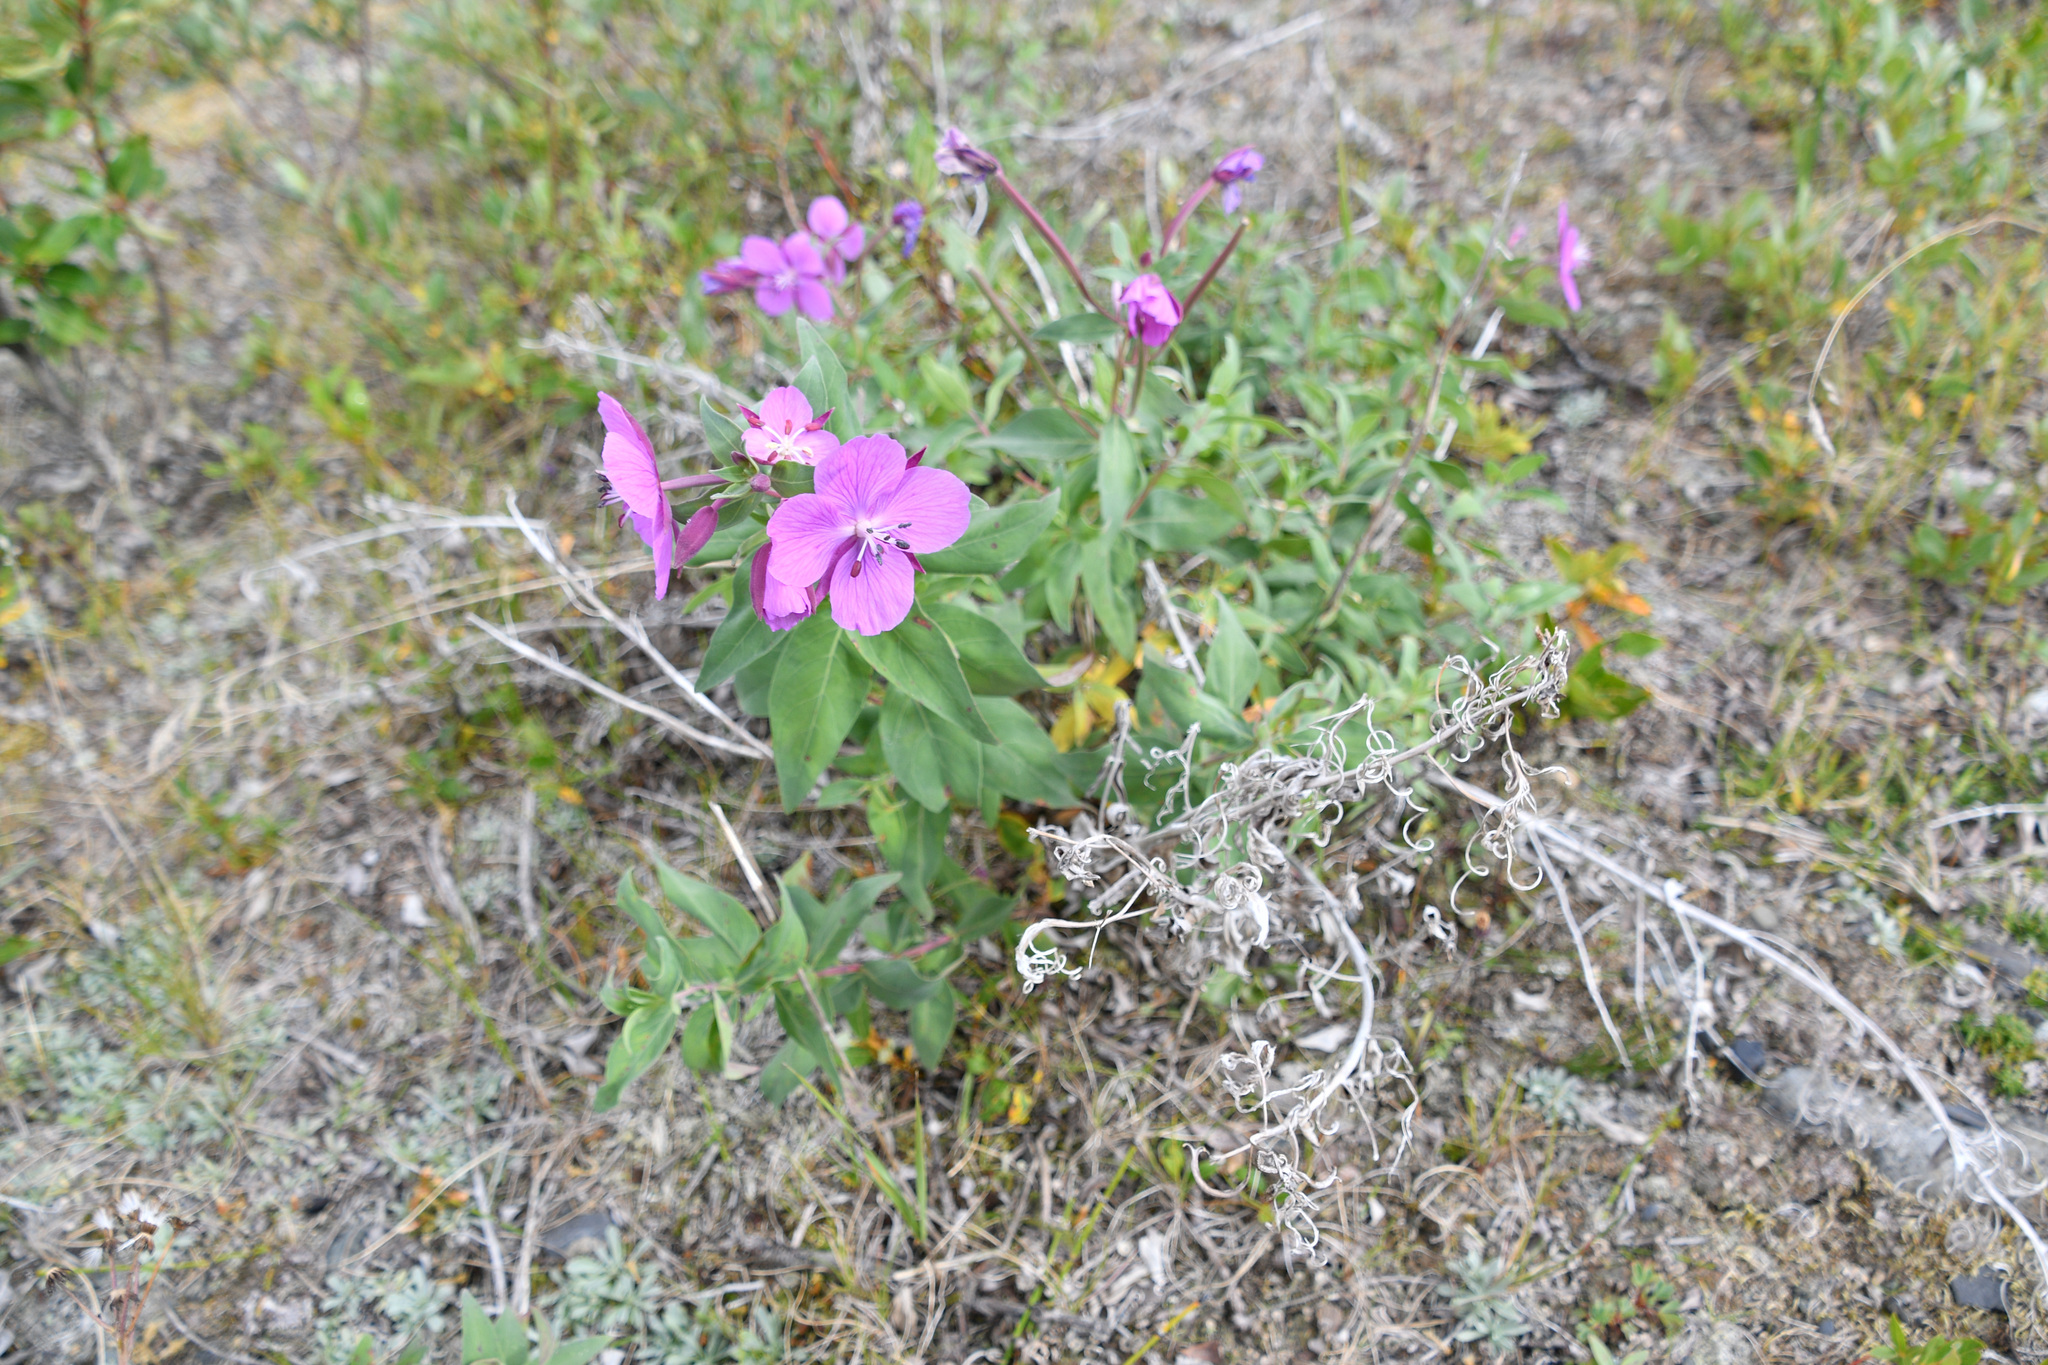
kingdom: Plantae
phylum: Tracheophyta
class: Magnoliopsida
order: Myrtales
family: Onagraceae
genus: Chamaenerion
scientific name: Chamaenerion latifolium
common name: Dwarf fireweed
